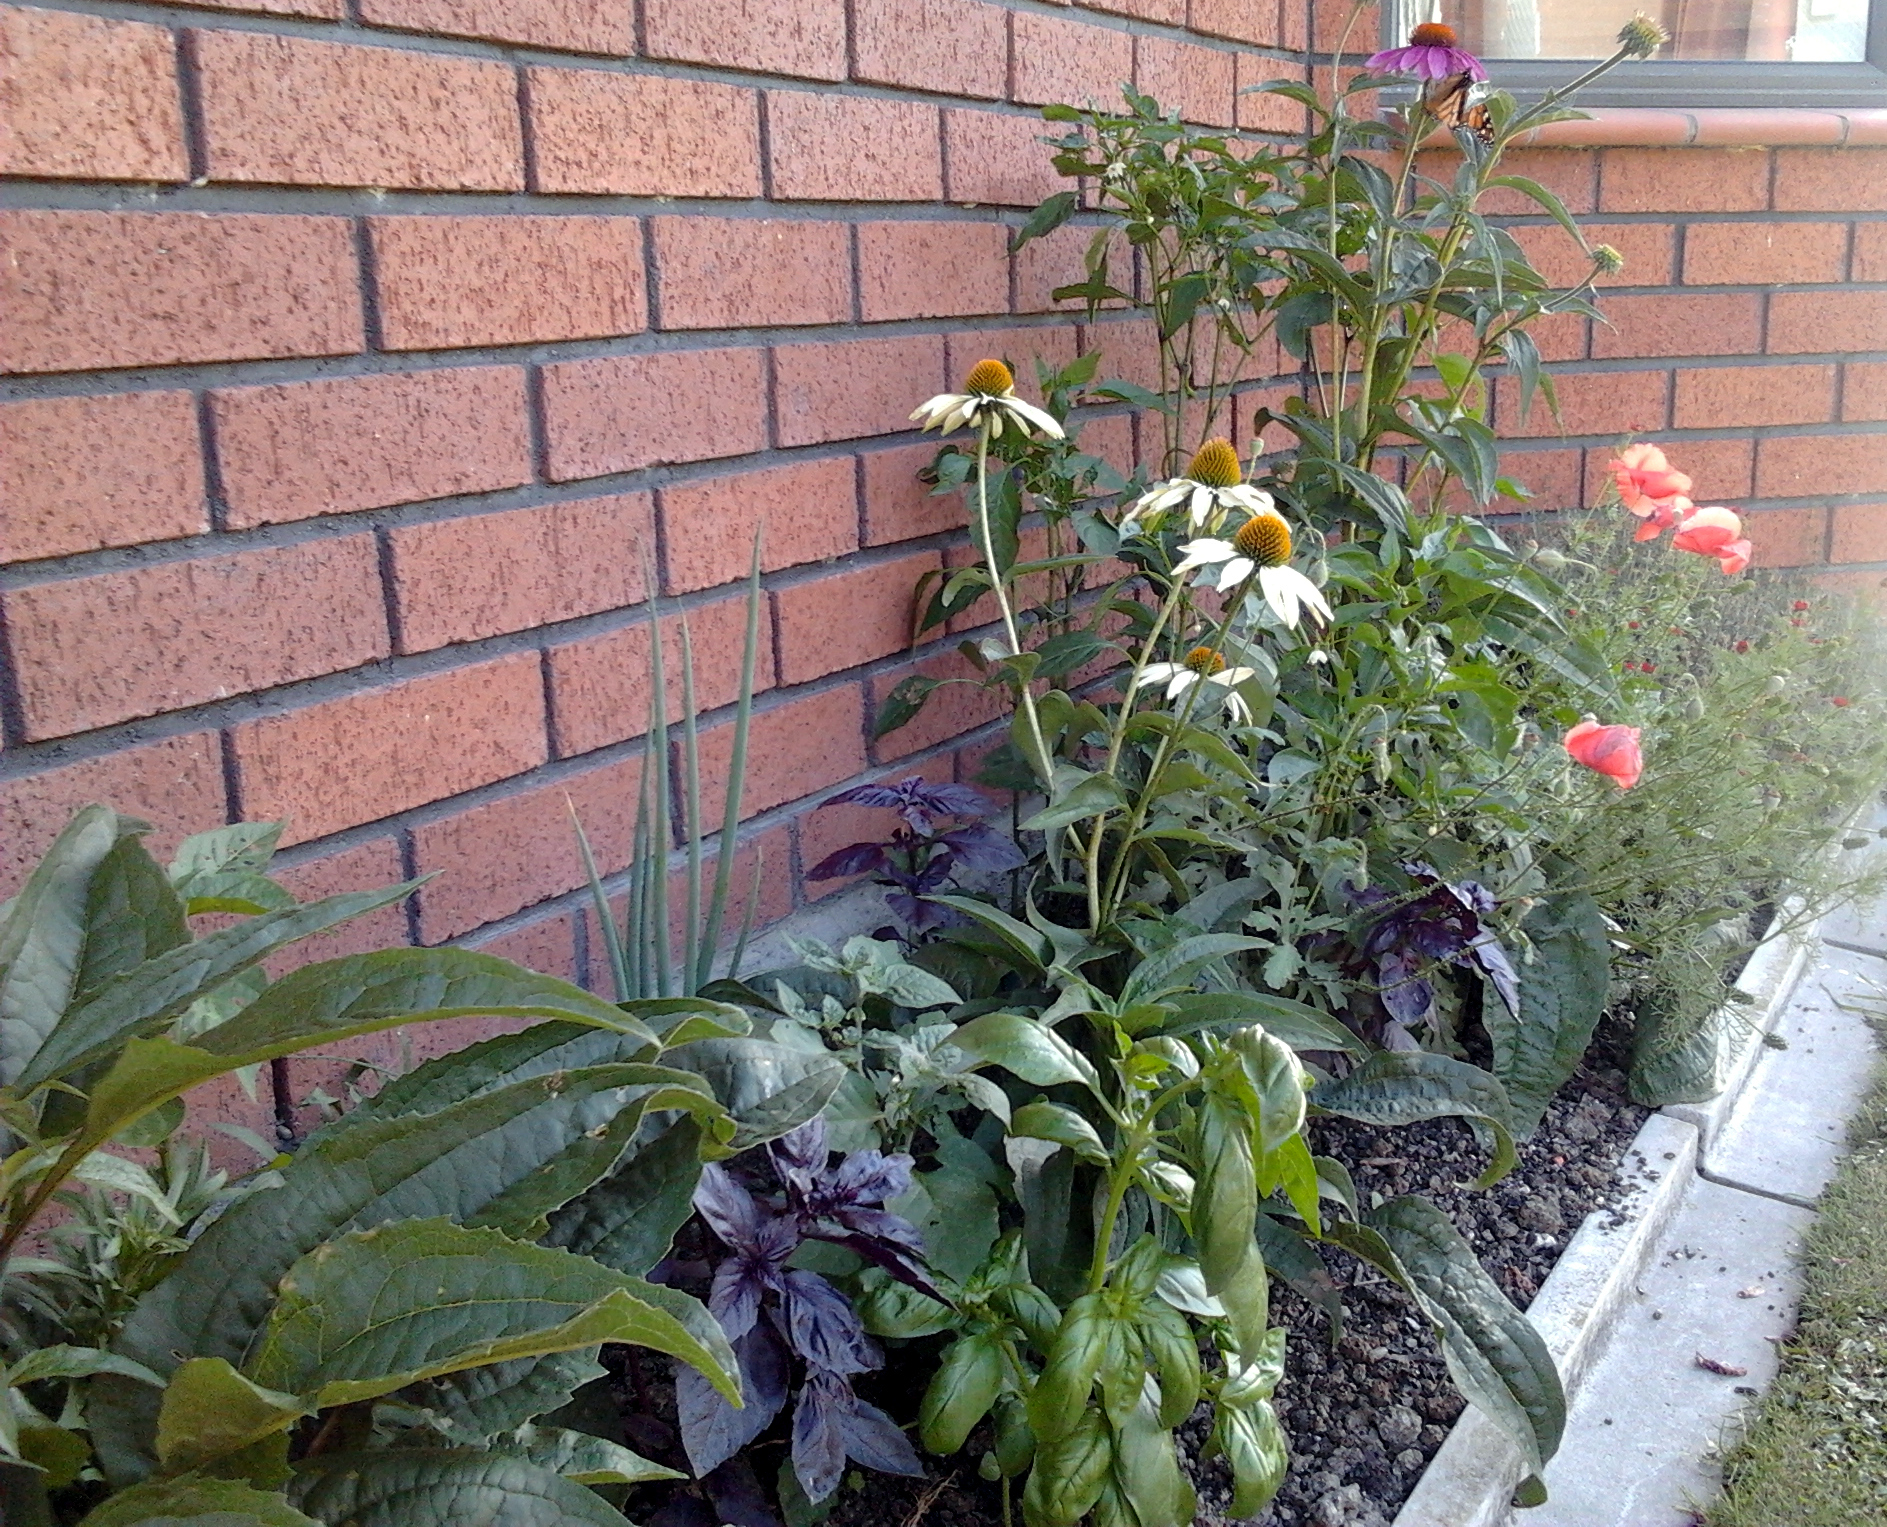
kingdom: Animalia
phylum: Arthropoda
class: Insecta
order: Lepidoptera
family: Nymphalidae
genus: Danaus
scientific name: Danaus plexippus
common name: Monarch
